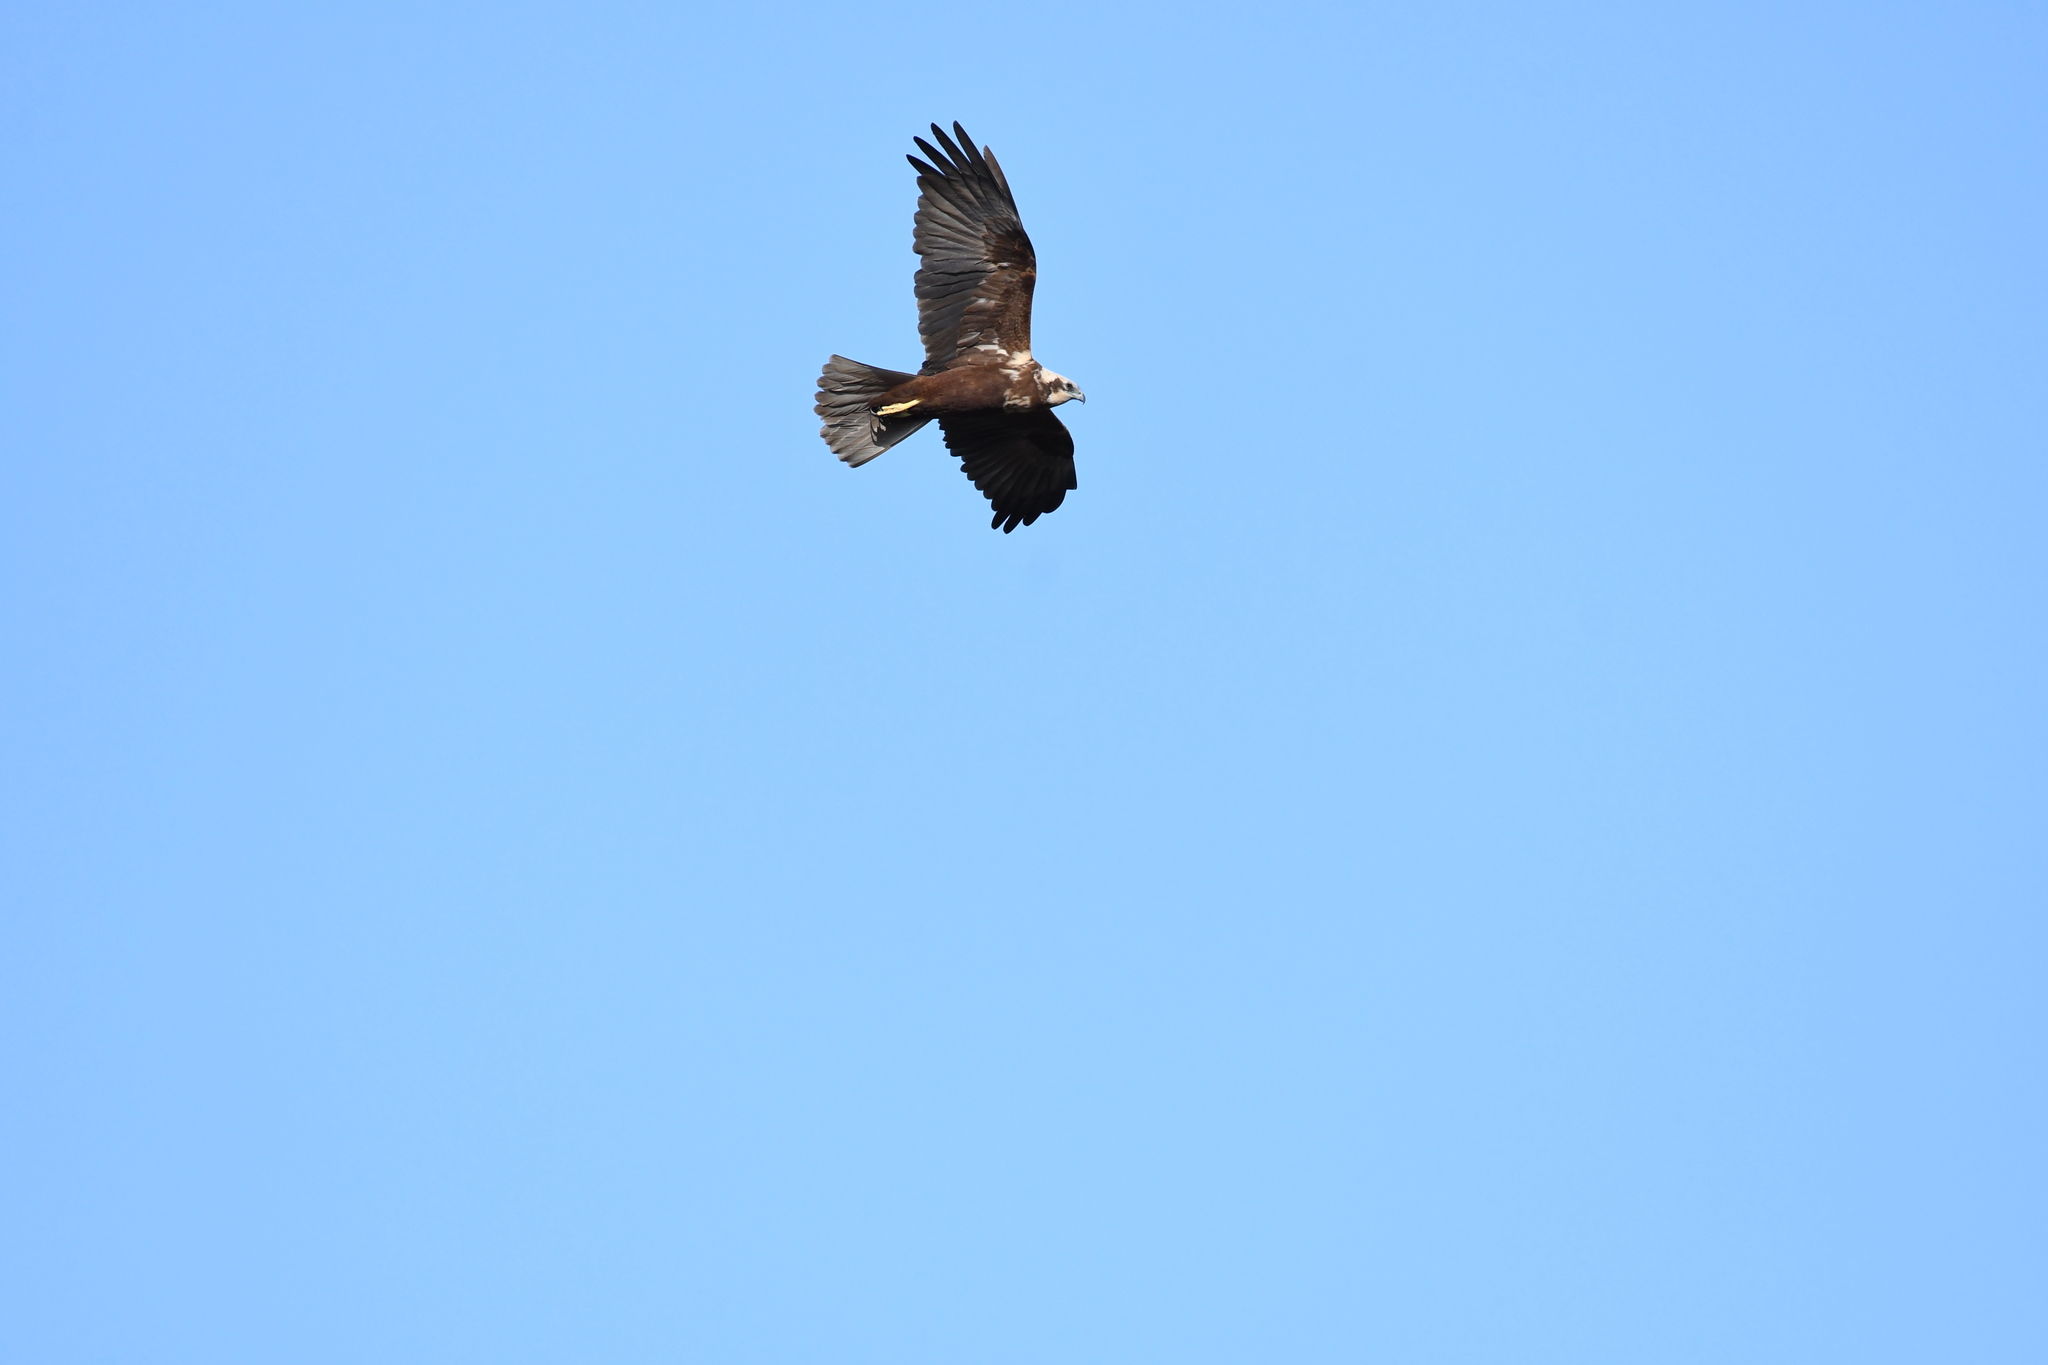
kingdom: Animalia
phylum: Chordata
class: Aves
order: Accipitriformes
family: Accipitridae
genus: Circus
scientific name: Circus aeruginosus
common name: Western marsh harrier
